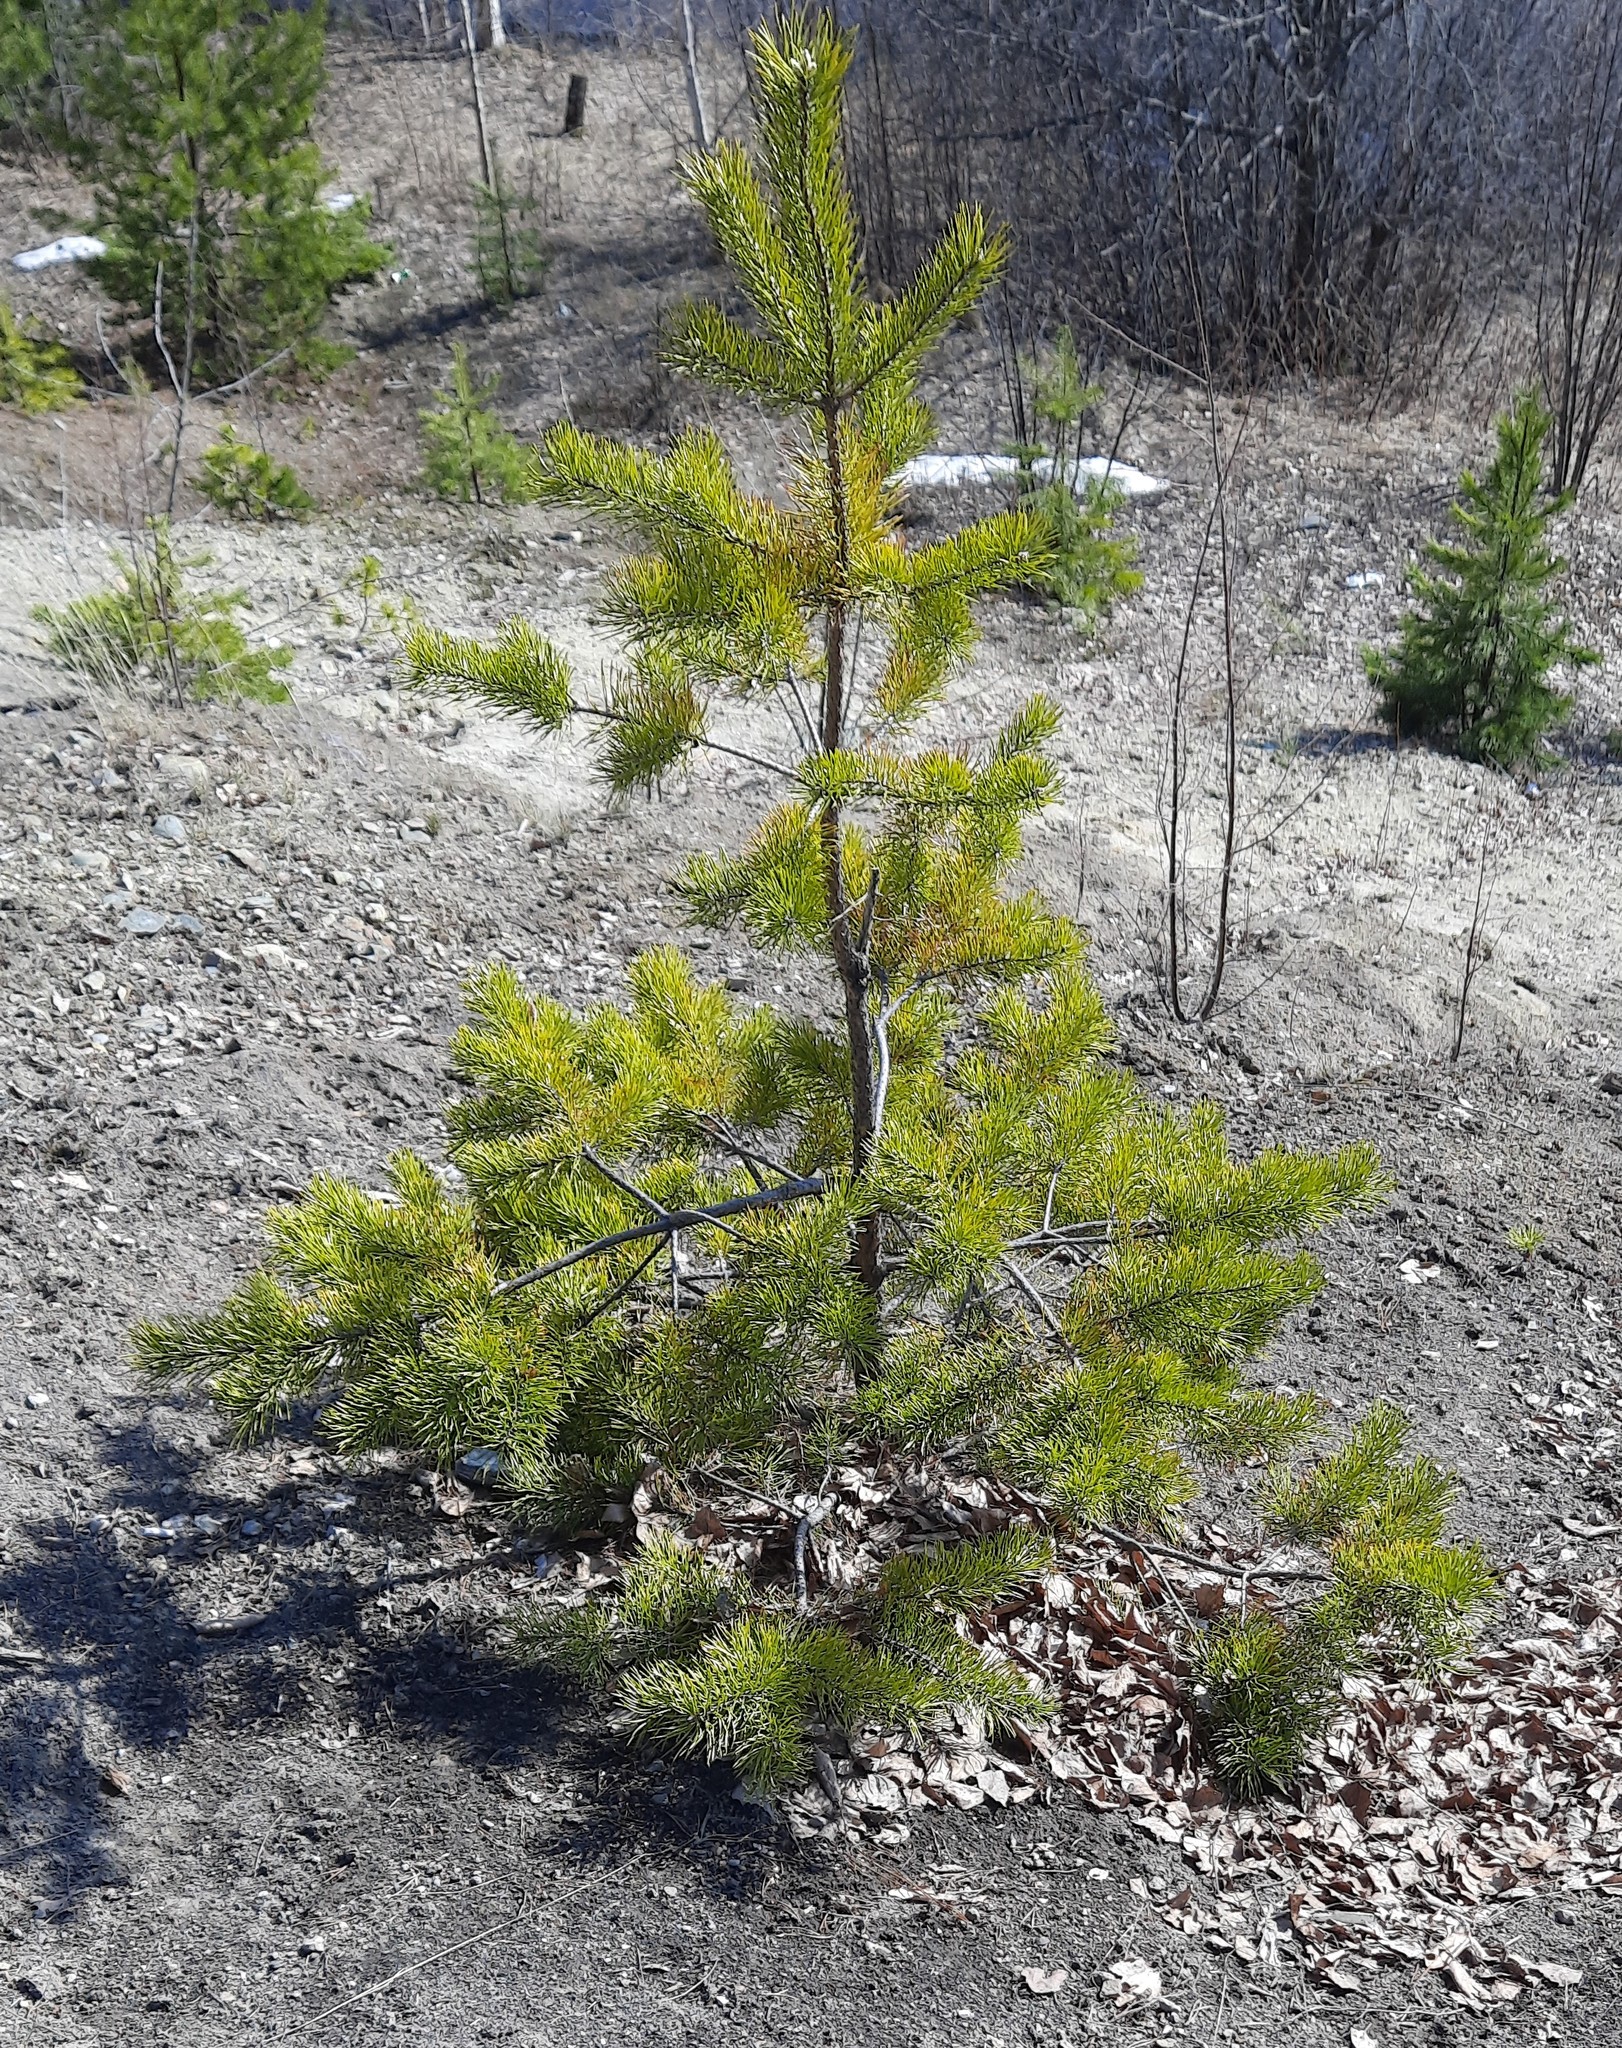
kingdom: Plantae
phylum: Tracheophyta
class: Pinopsida
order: Pinales
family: Pinaceae
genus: Pinus
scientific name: Pinus sylvestris
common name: Scots pine
